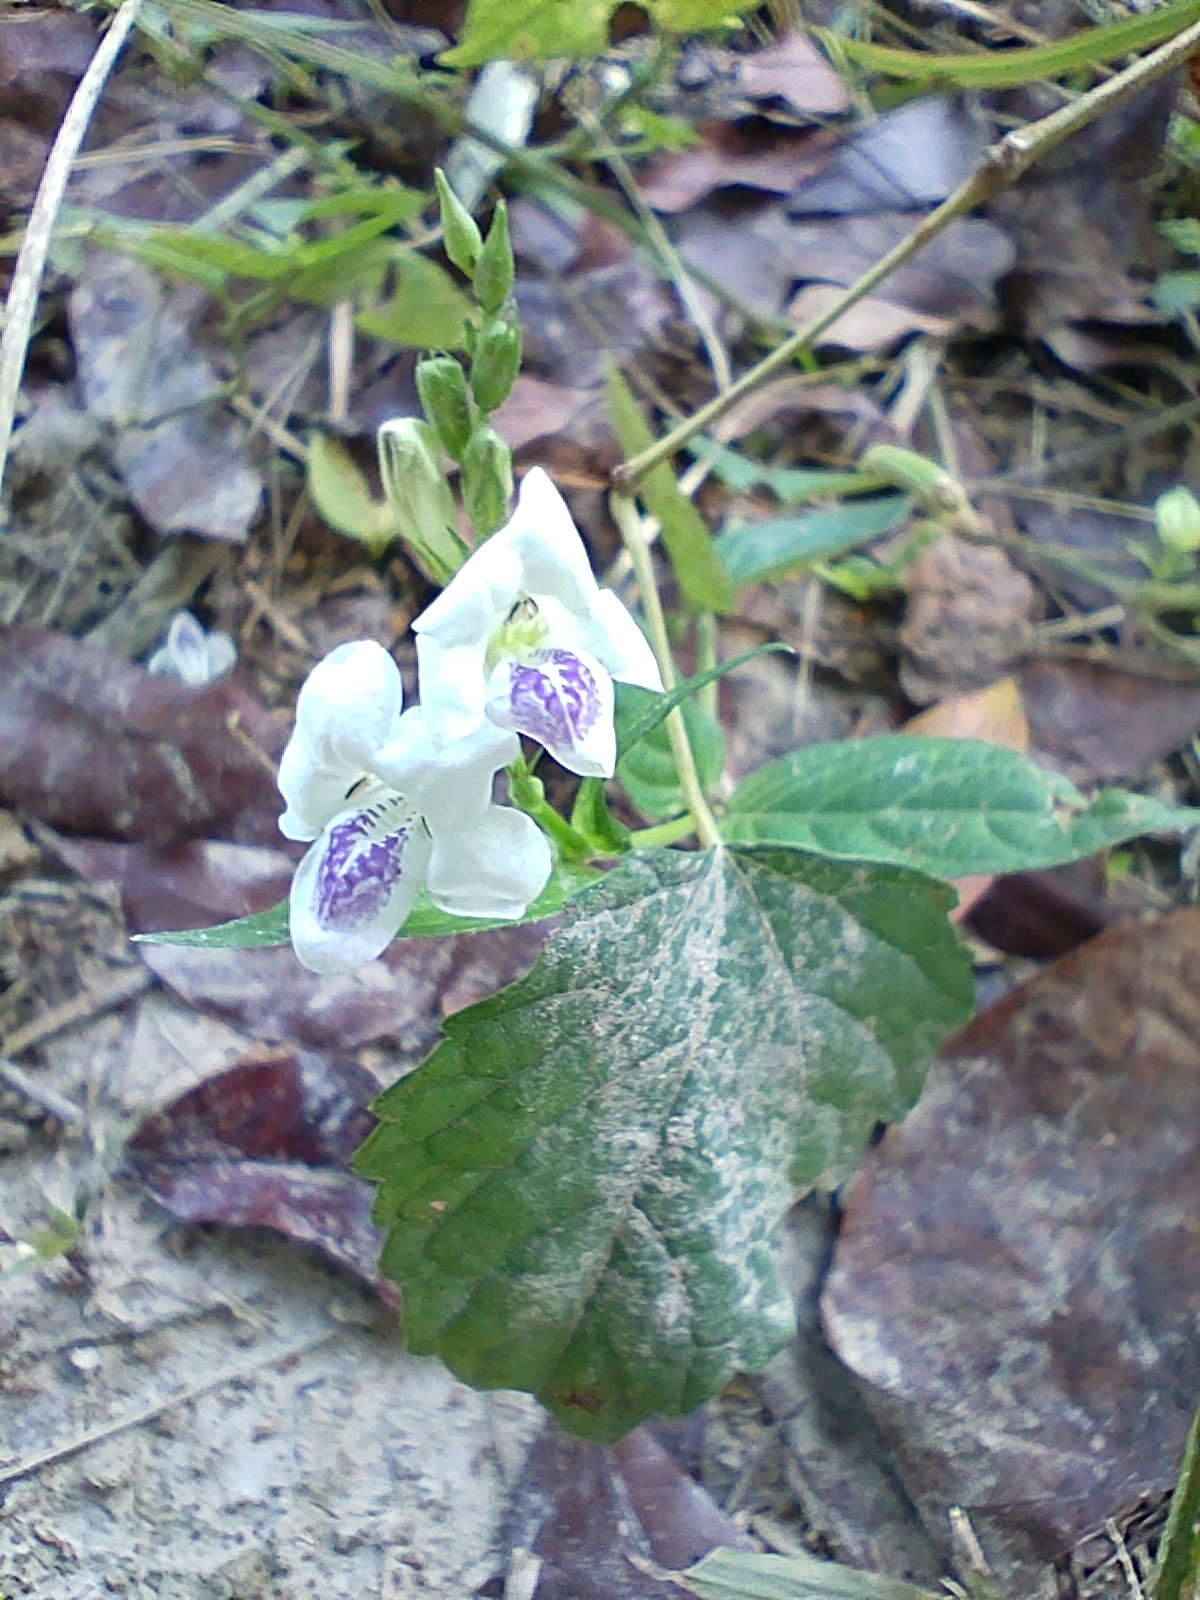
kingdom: Plantae
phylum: Tracheophyta
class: Magnoliopsida
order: Lamiales
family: Acanthaceae
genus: Asystasia
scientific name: Asystasia intrusa
